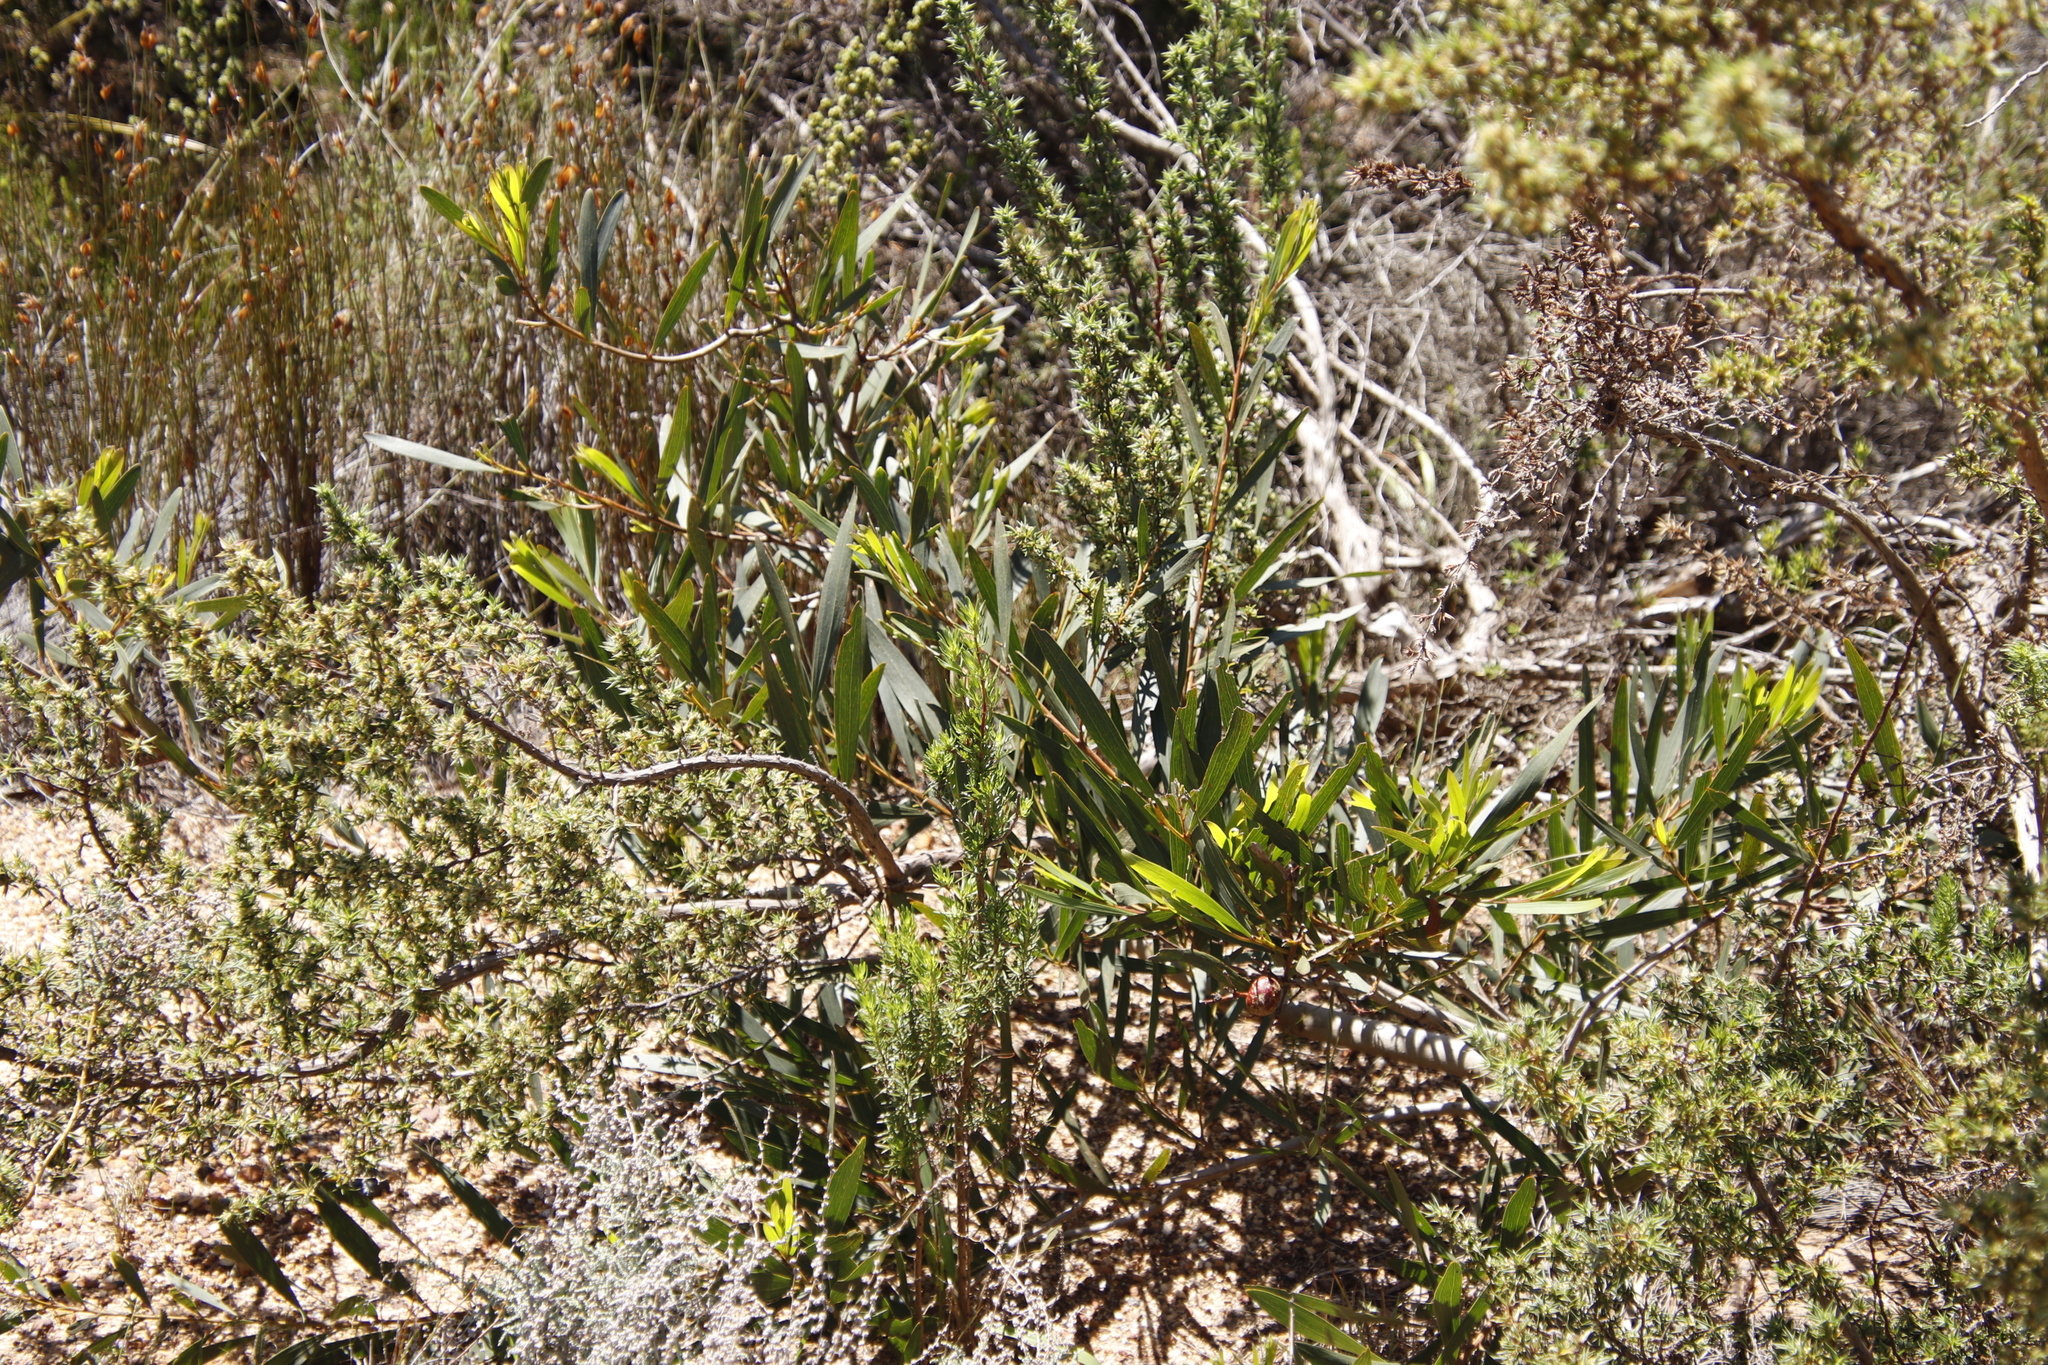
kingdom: Plantae
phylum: Tracheophyta
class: Magnoliopsida
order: Fabales
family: Fabaceae
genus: Acacia
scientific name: Acacia longifolia
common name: Sydney golden wattle
